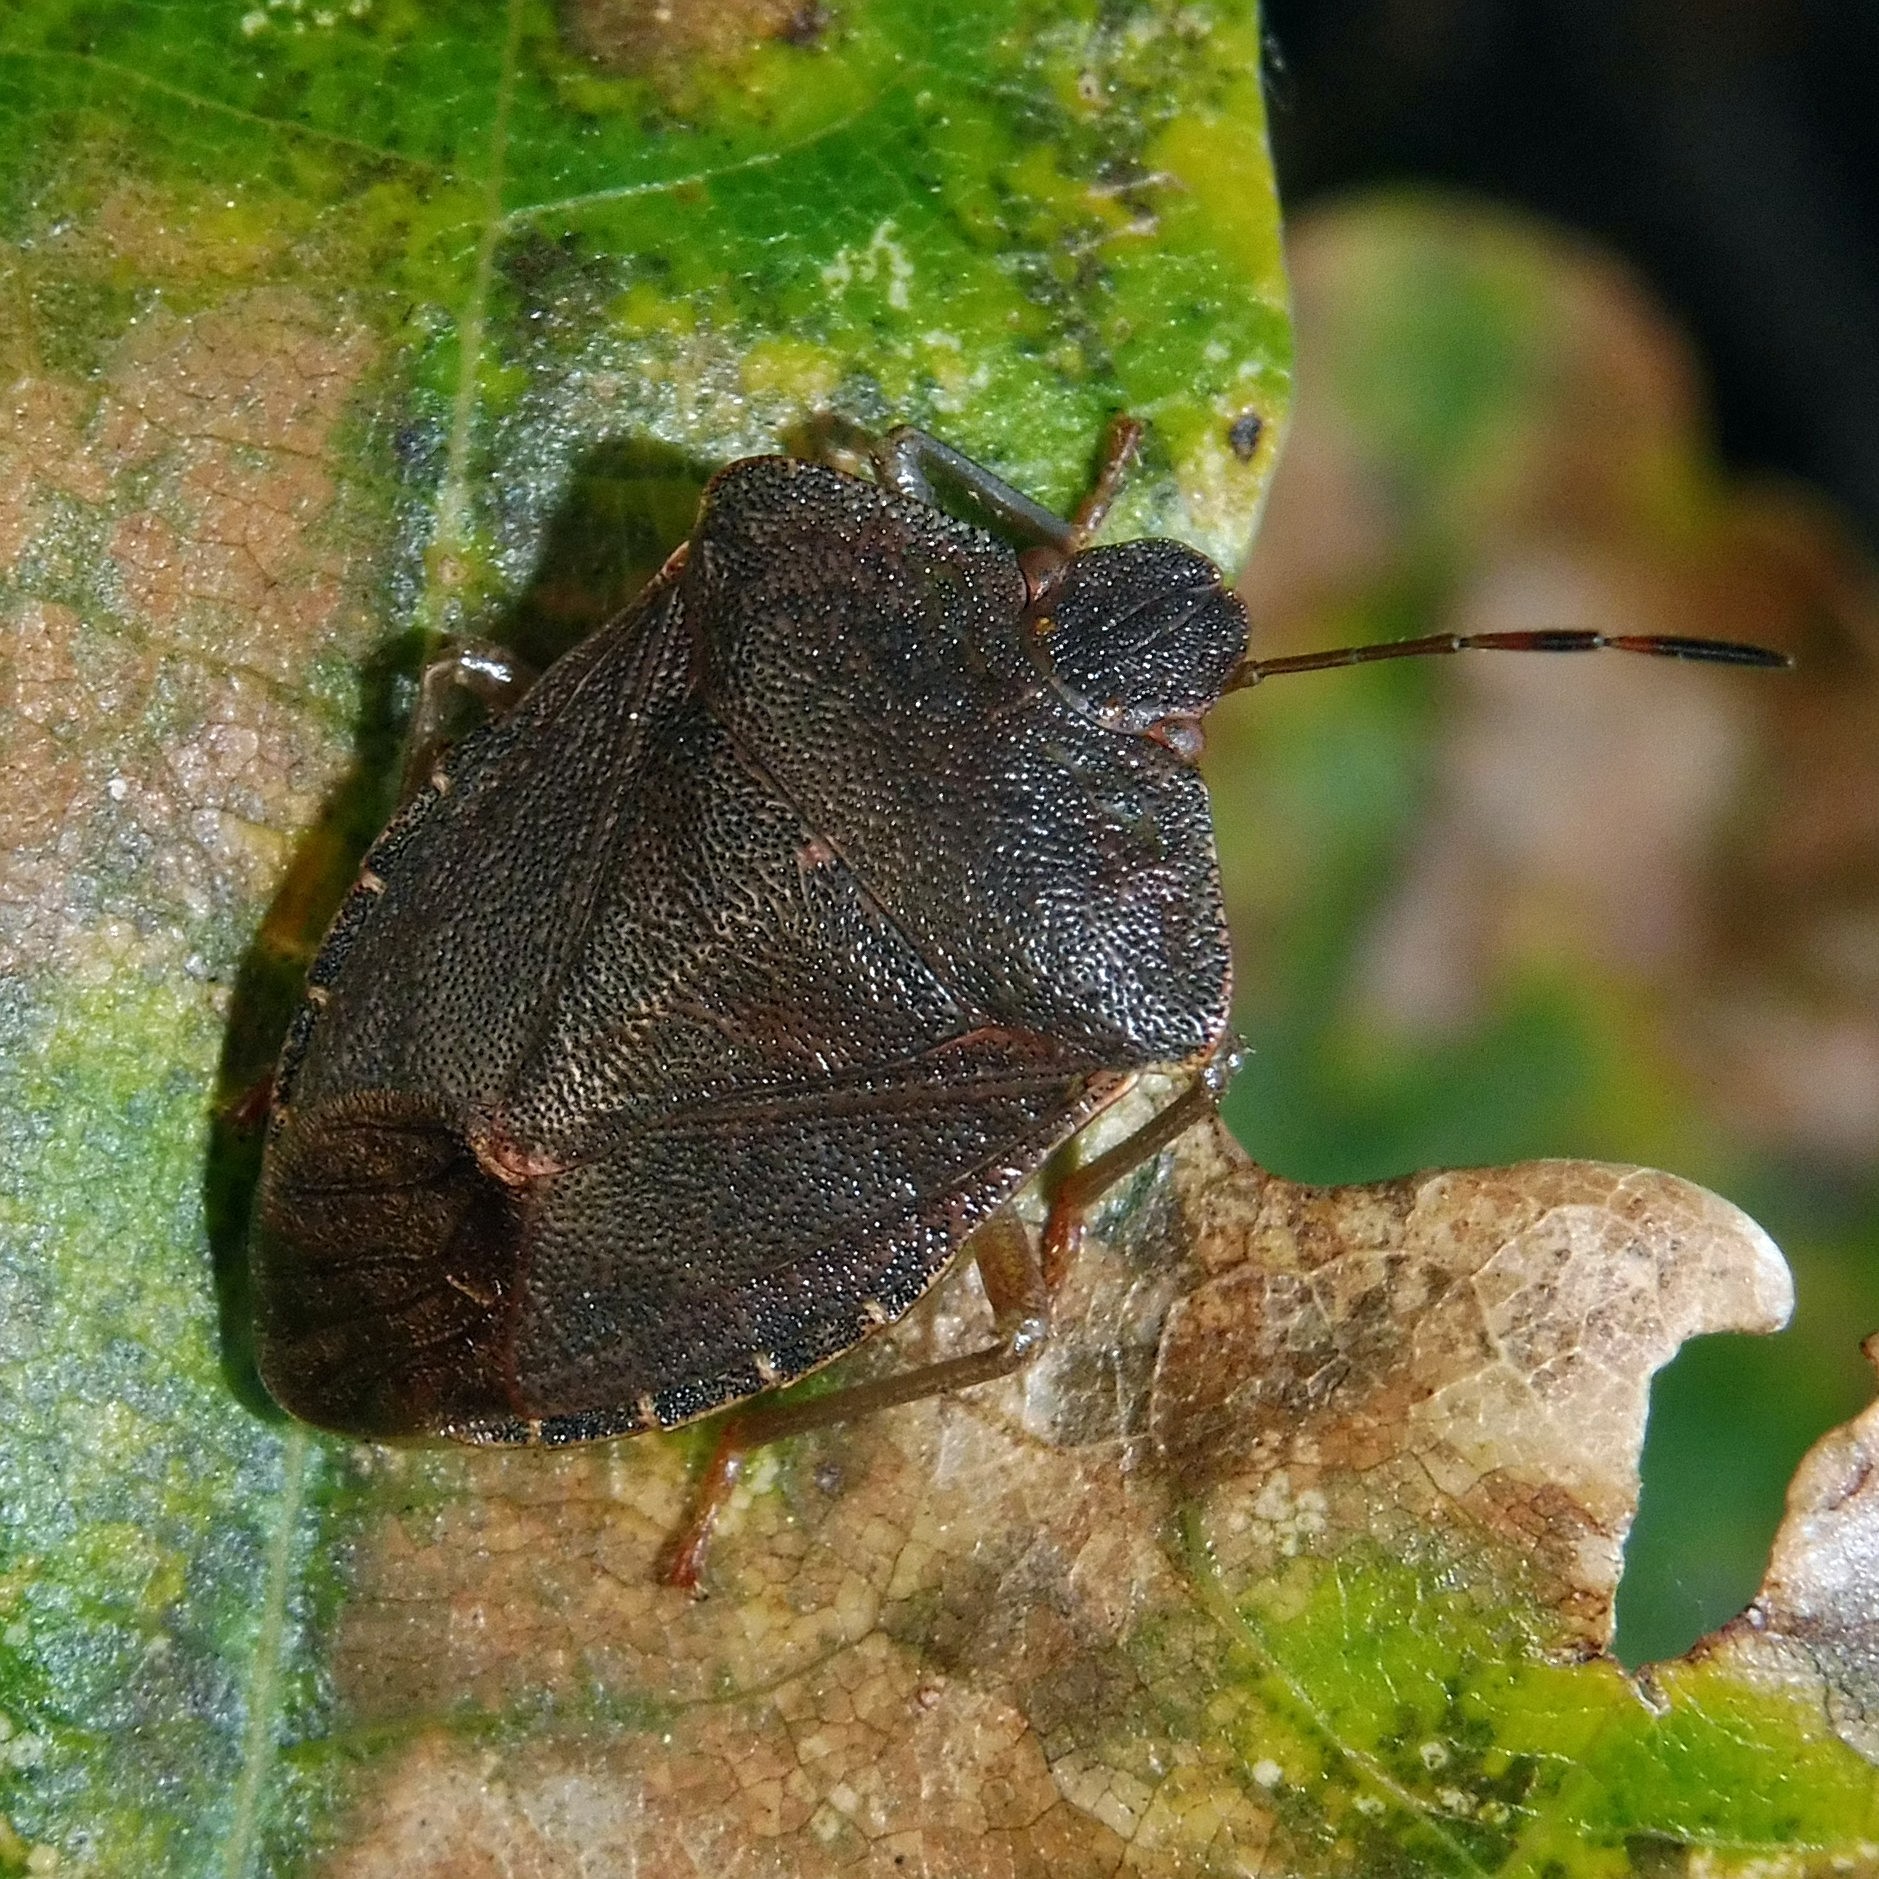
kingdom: Animalia
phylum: Arthropoda
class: Insecta
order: Hemiptera
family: Pentatomidae
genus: Palomena
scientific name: Palomena prasina
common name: Green shieldbug
